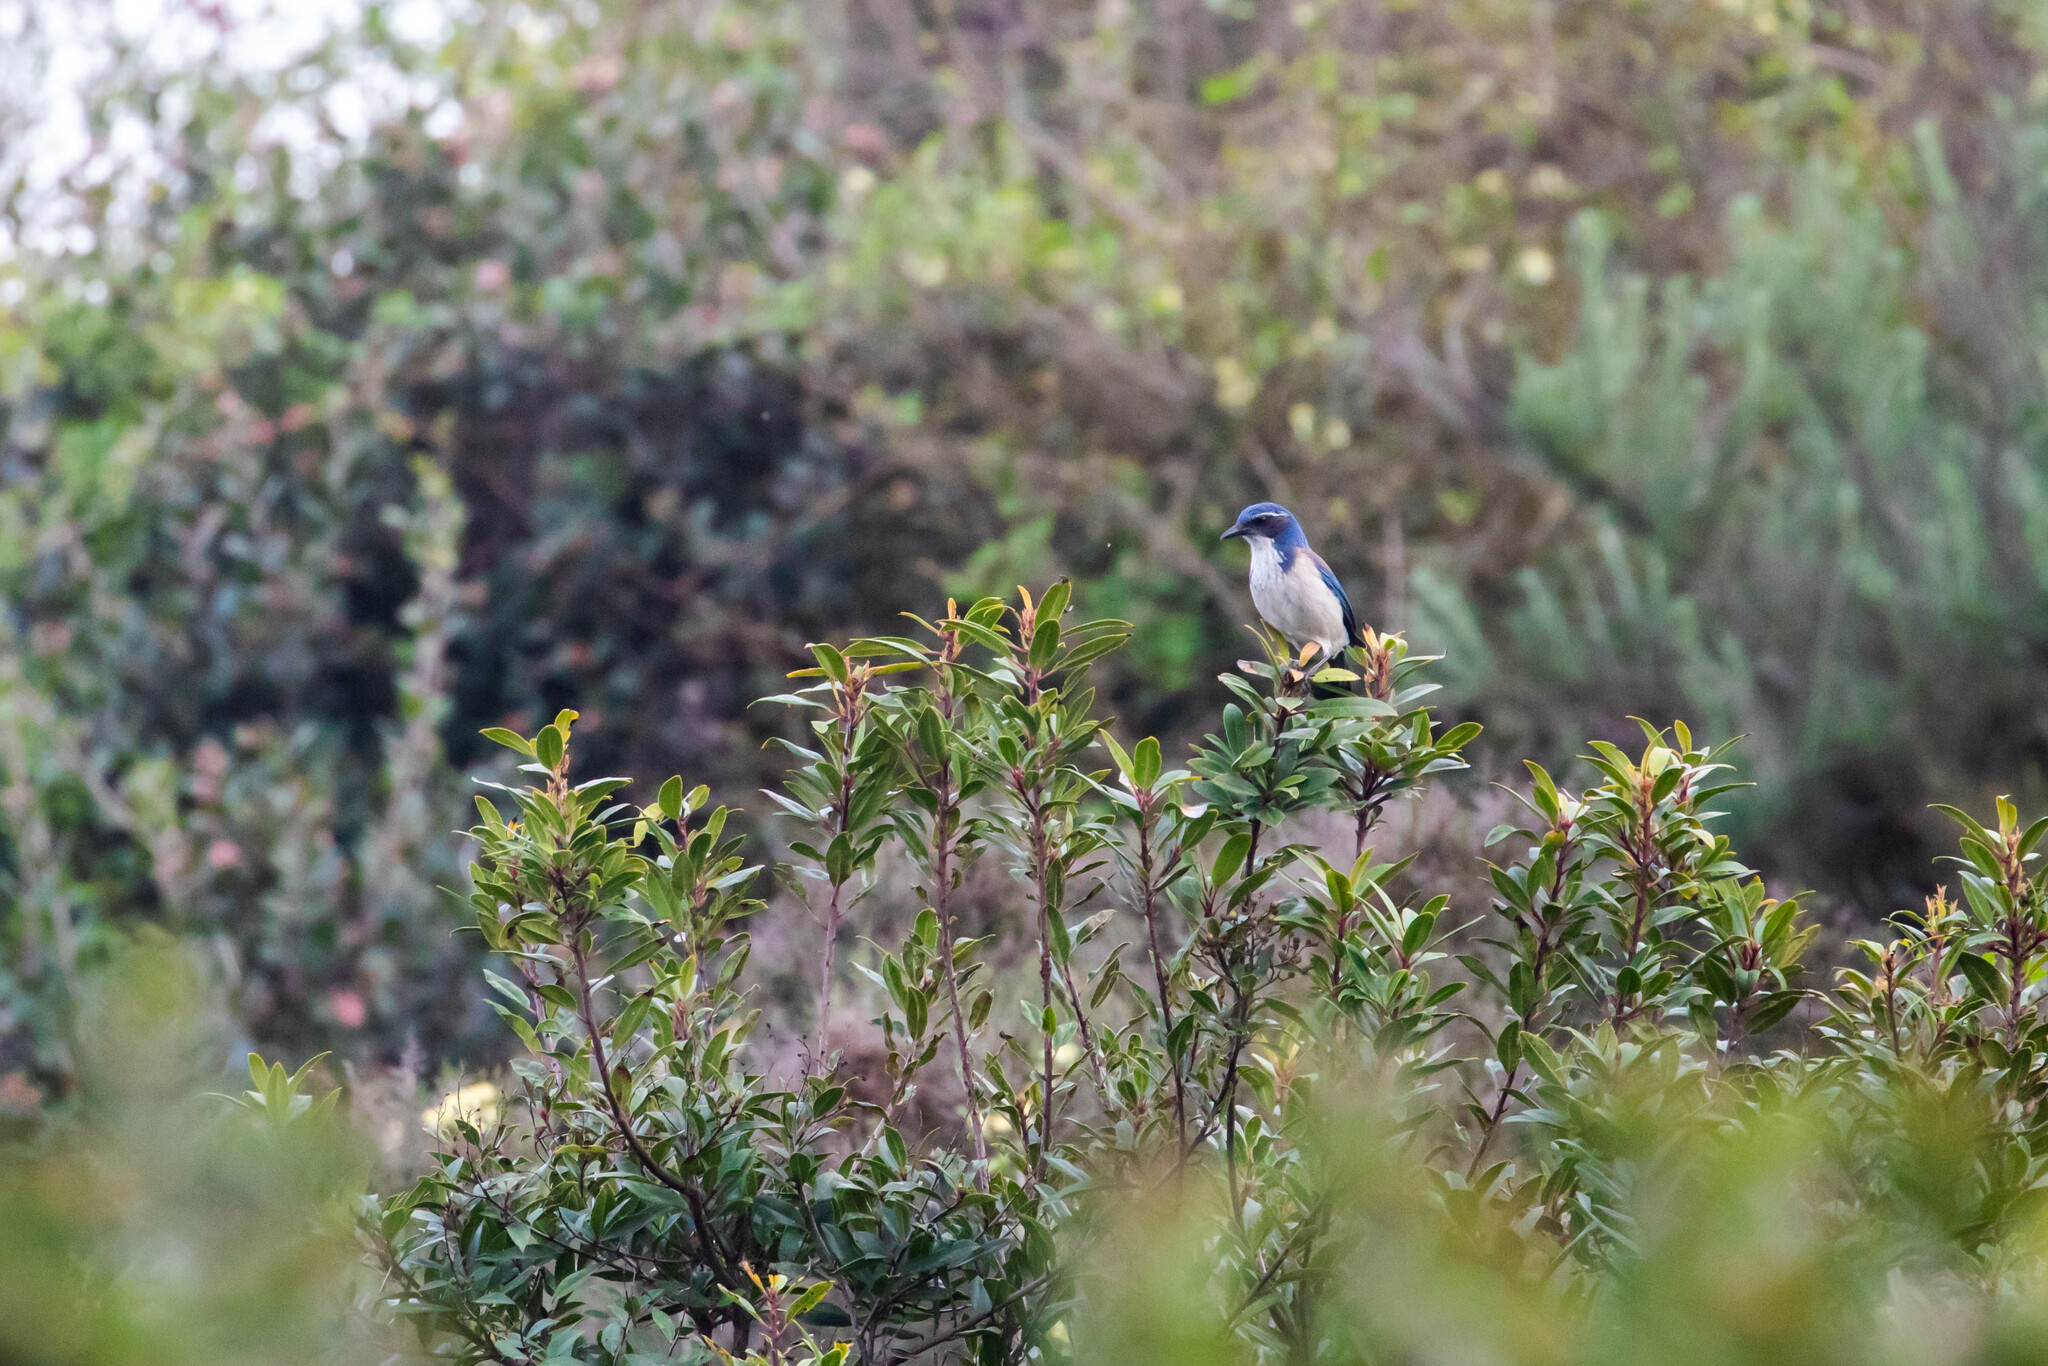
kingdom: Animalia
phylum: Chordata
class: Aves
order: Passeriformes
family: Corvidae
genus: Aphelocoma
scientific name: Aphelocoma californica
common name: California scrub-jay
